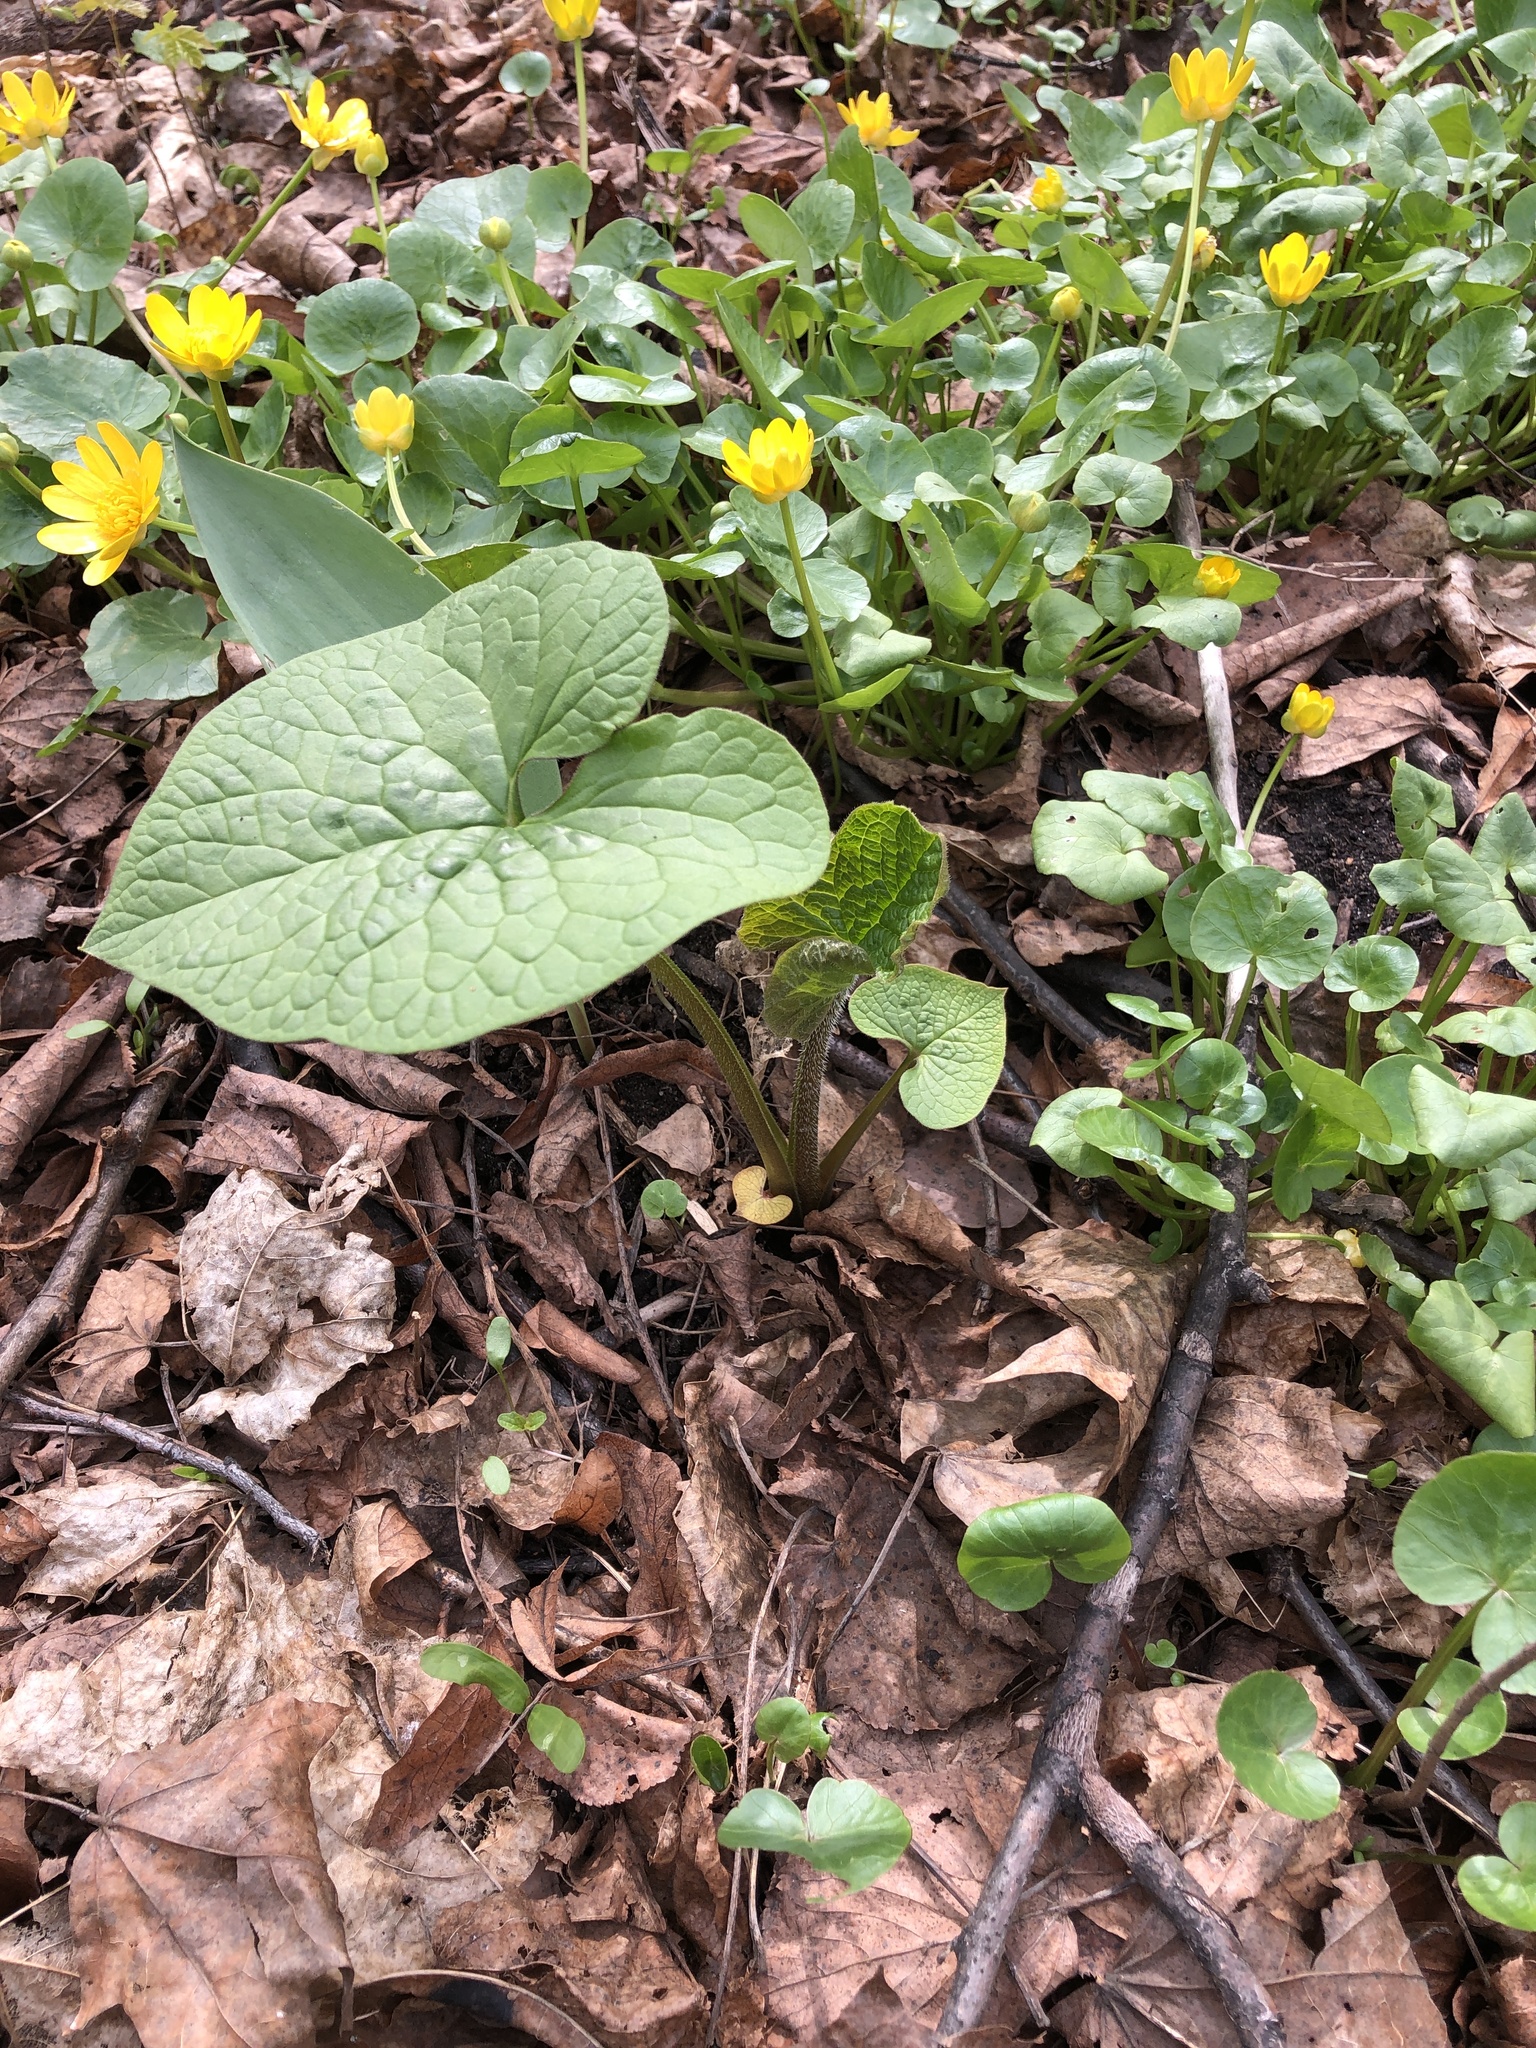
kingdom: Plantae
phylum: Tracheophyta
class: Magnoliopsida
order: Boraginales
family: Boraginaceae
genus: Brunnera
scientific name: Brunnera sibirica
